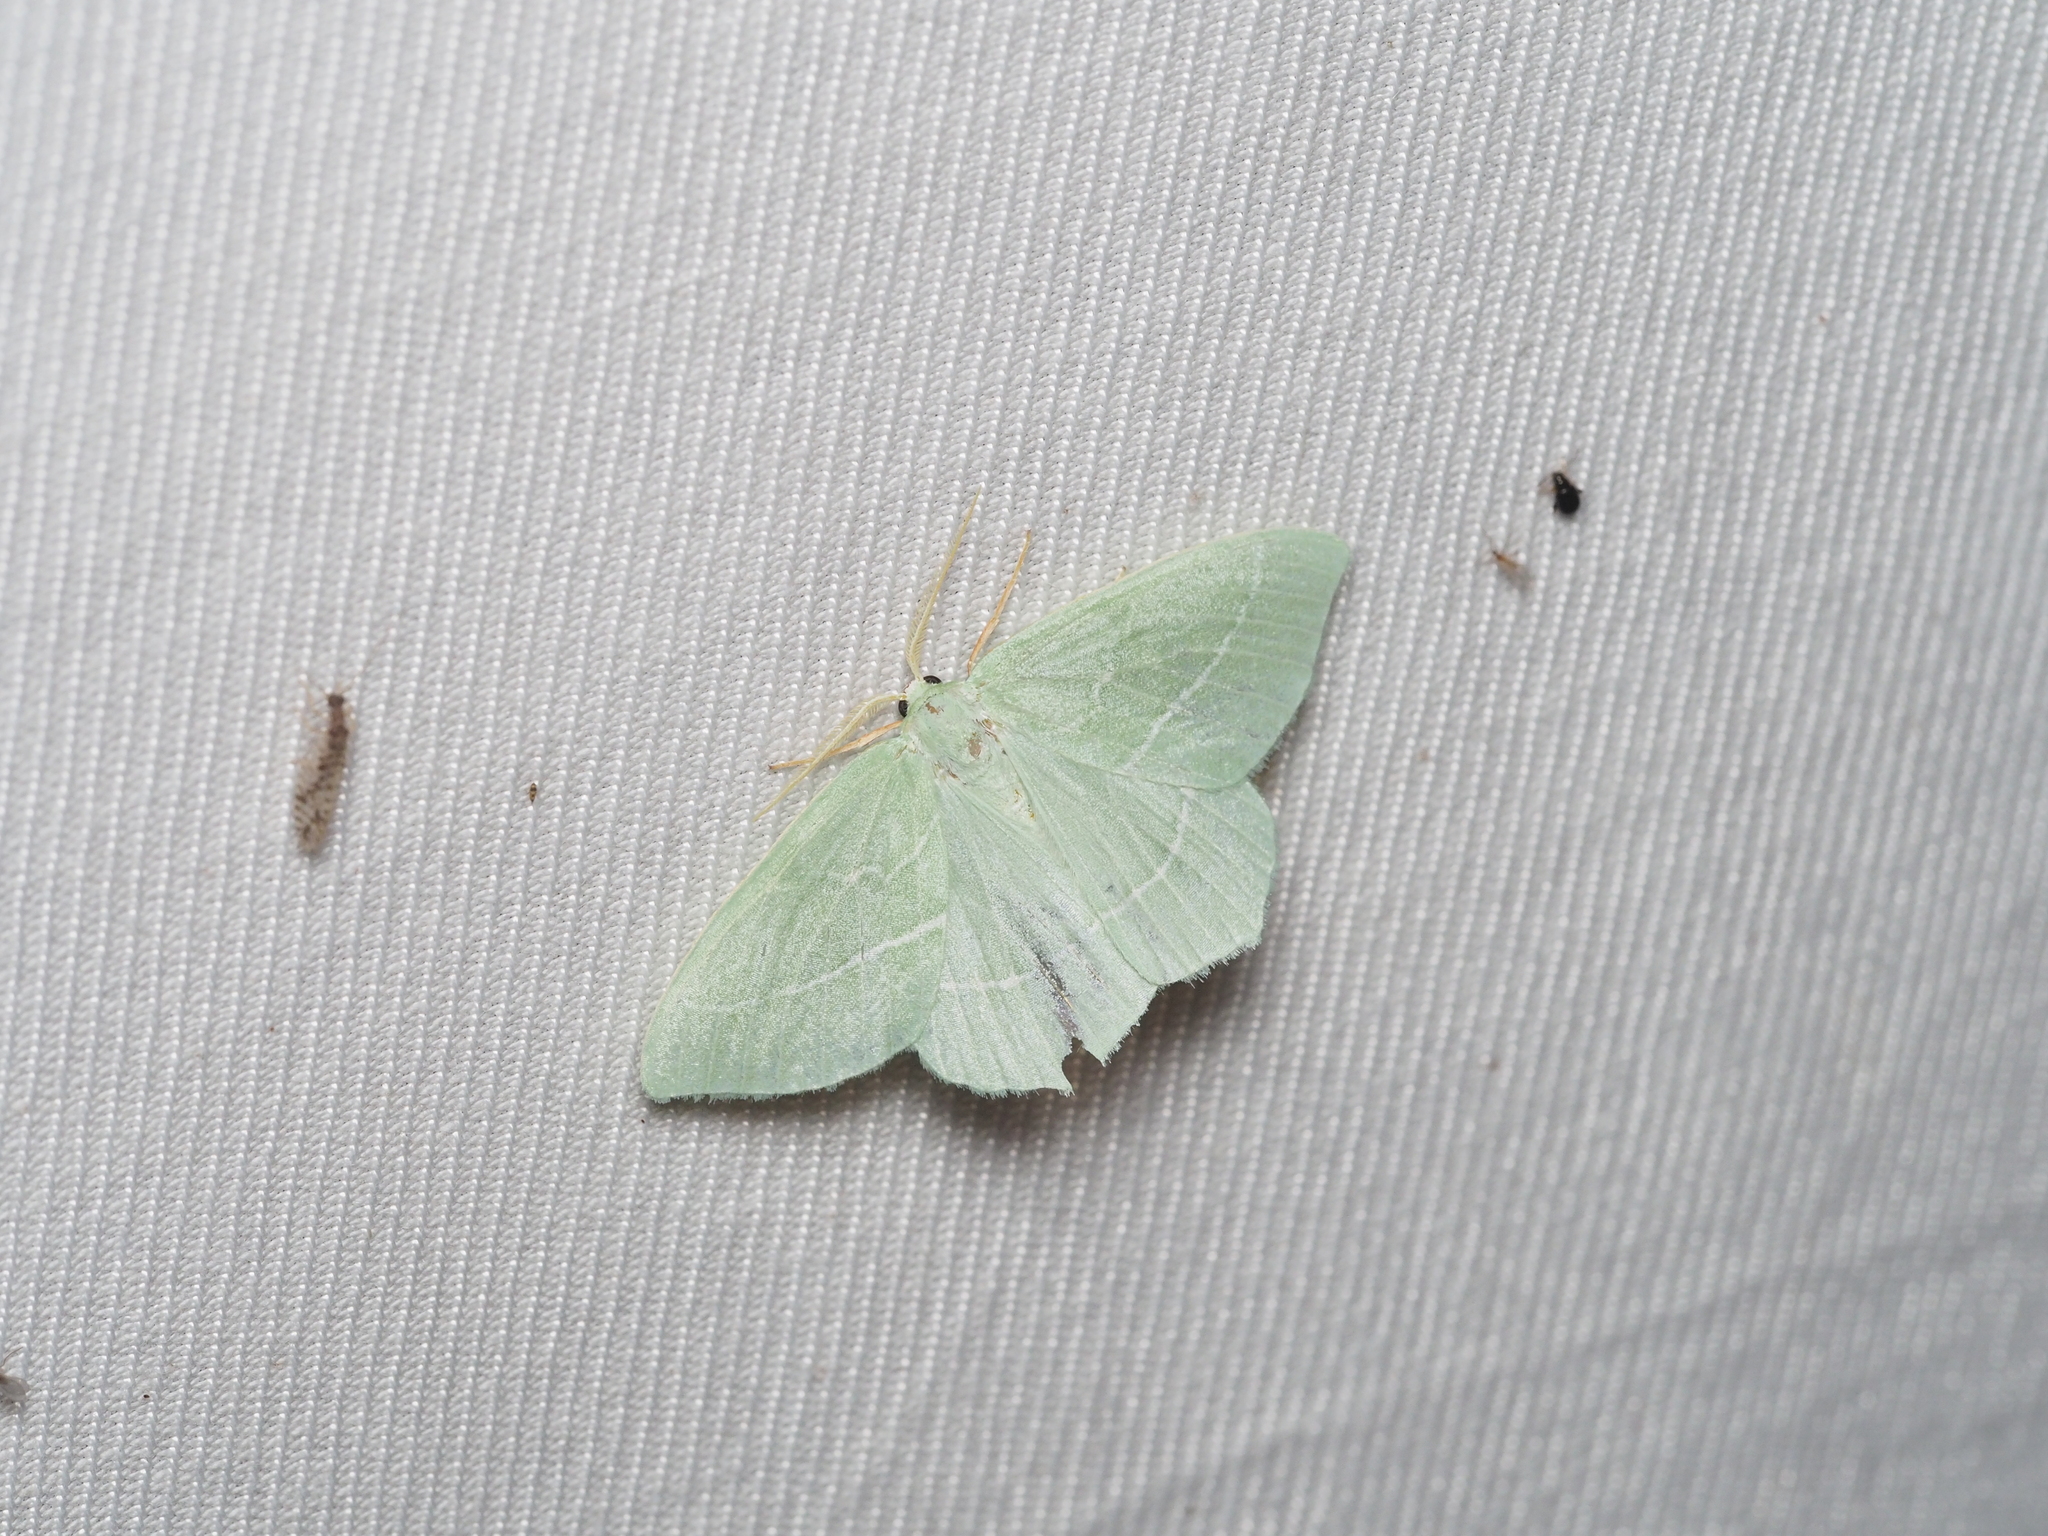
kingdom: Animalia
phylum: Arthropoda
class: Insecta
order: Lepidoptera
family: Geometridae
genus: Hemistola
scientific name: Hemistola chrysoprasaria
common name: Small emerald
